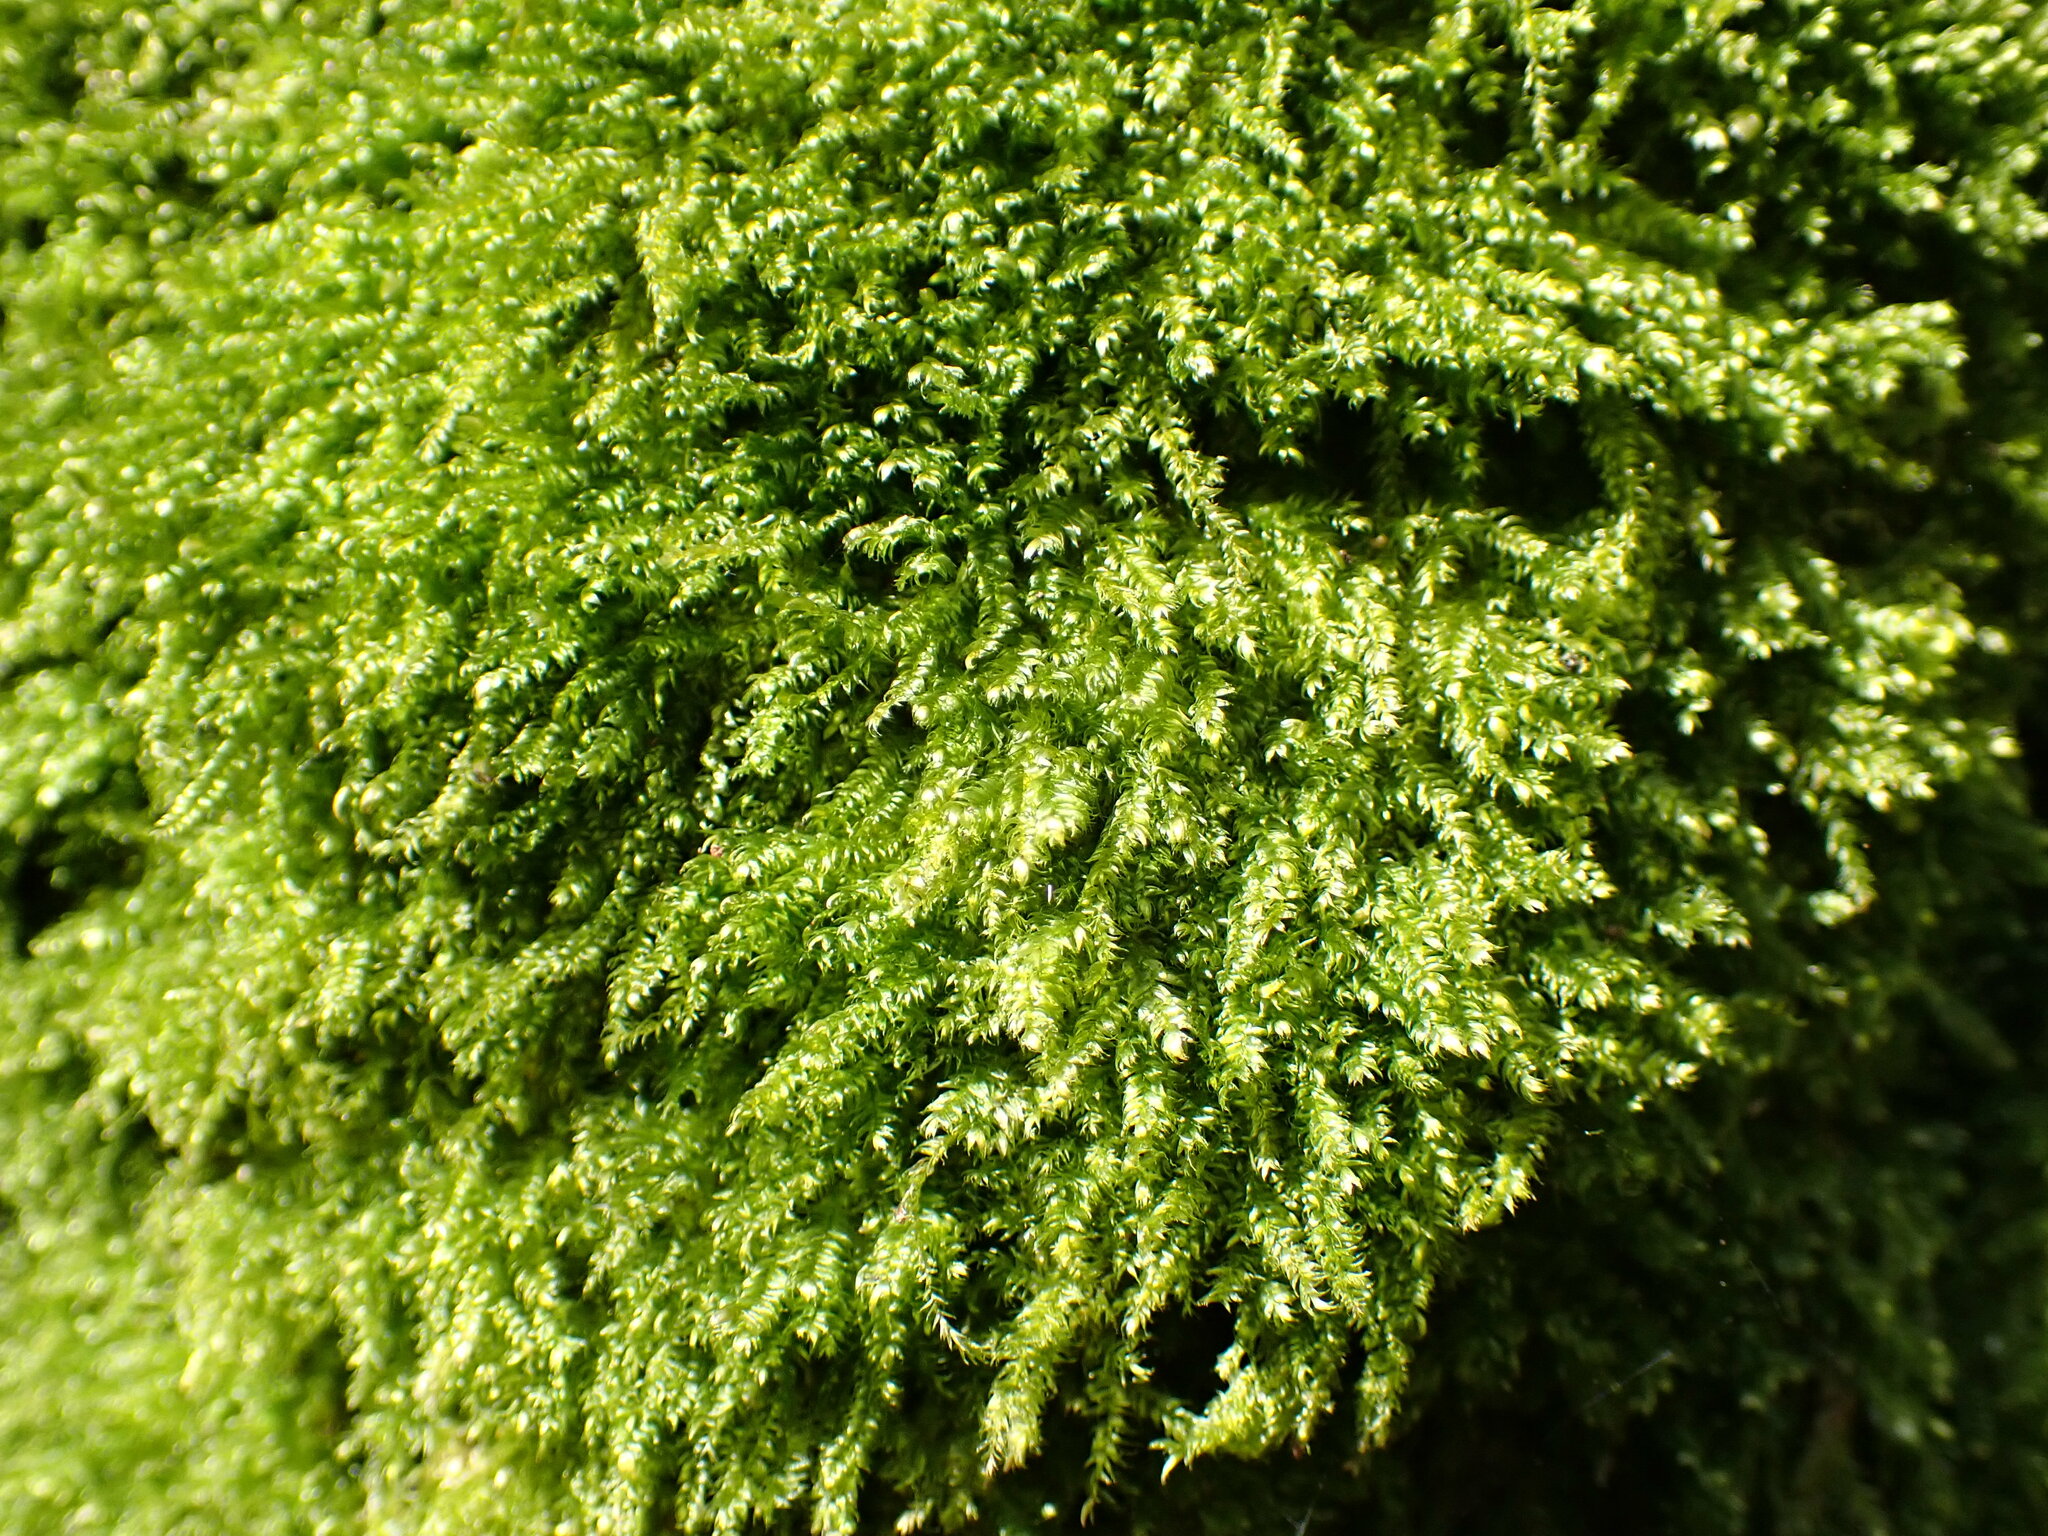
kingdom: Plantae
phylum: Bryophyta
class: Bryopsida
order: Hypnales
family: Plagiotheciaceae
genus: Pseudotaxiphyllum
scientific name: Pseudotaxiphyllum elegans
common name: Elegant silk moss
